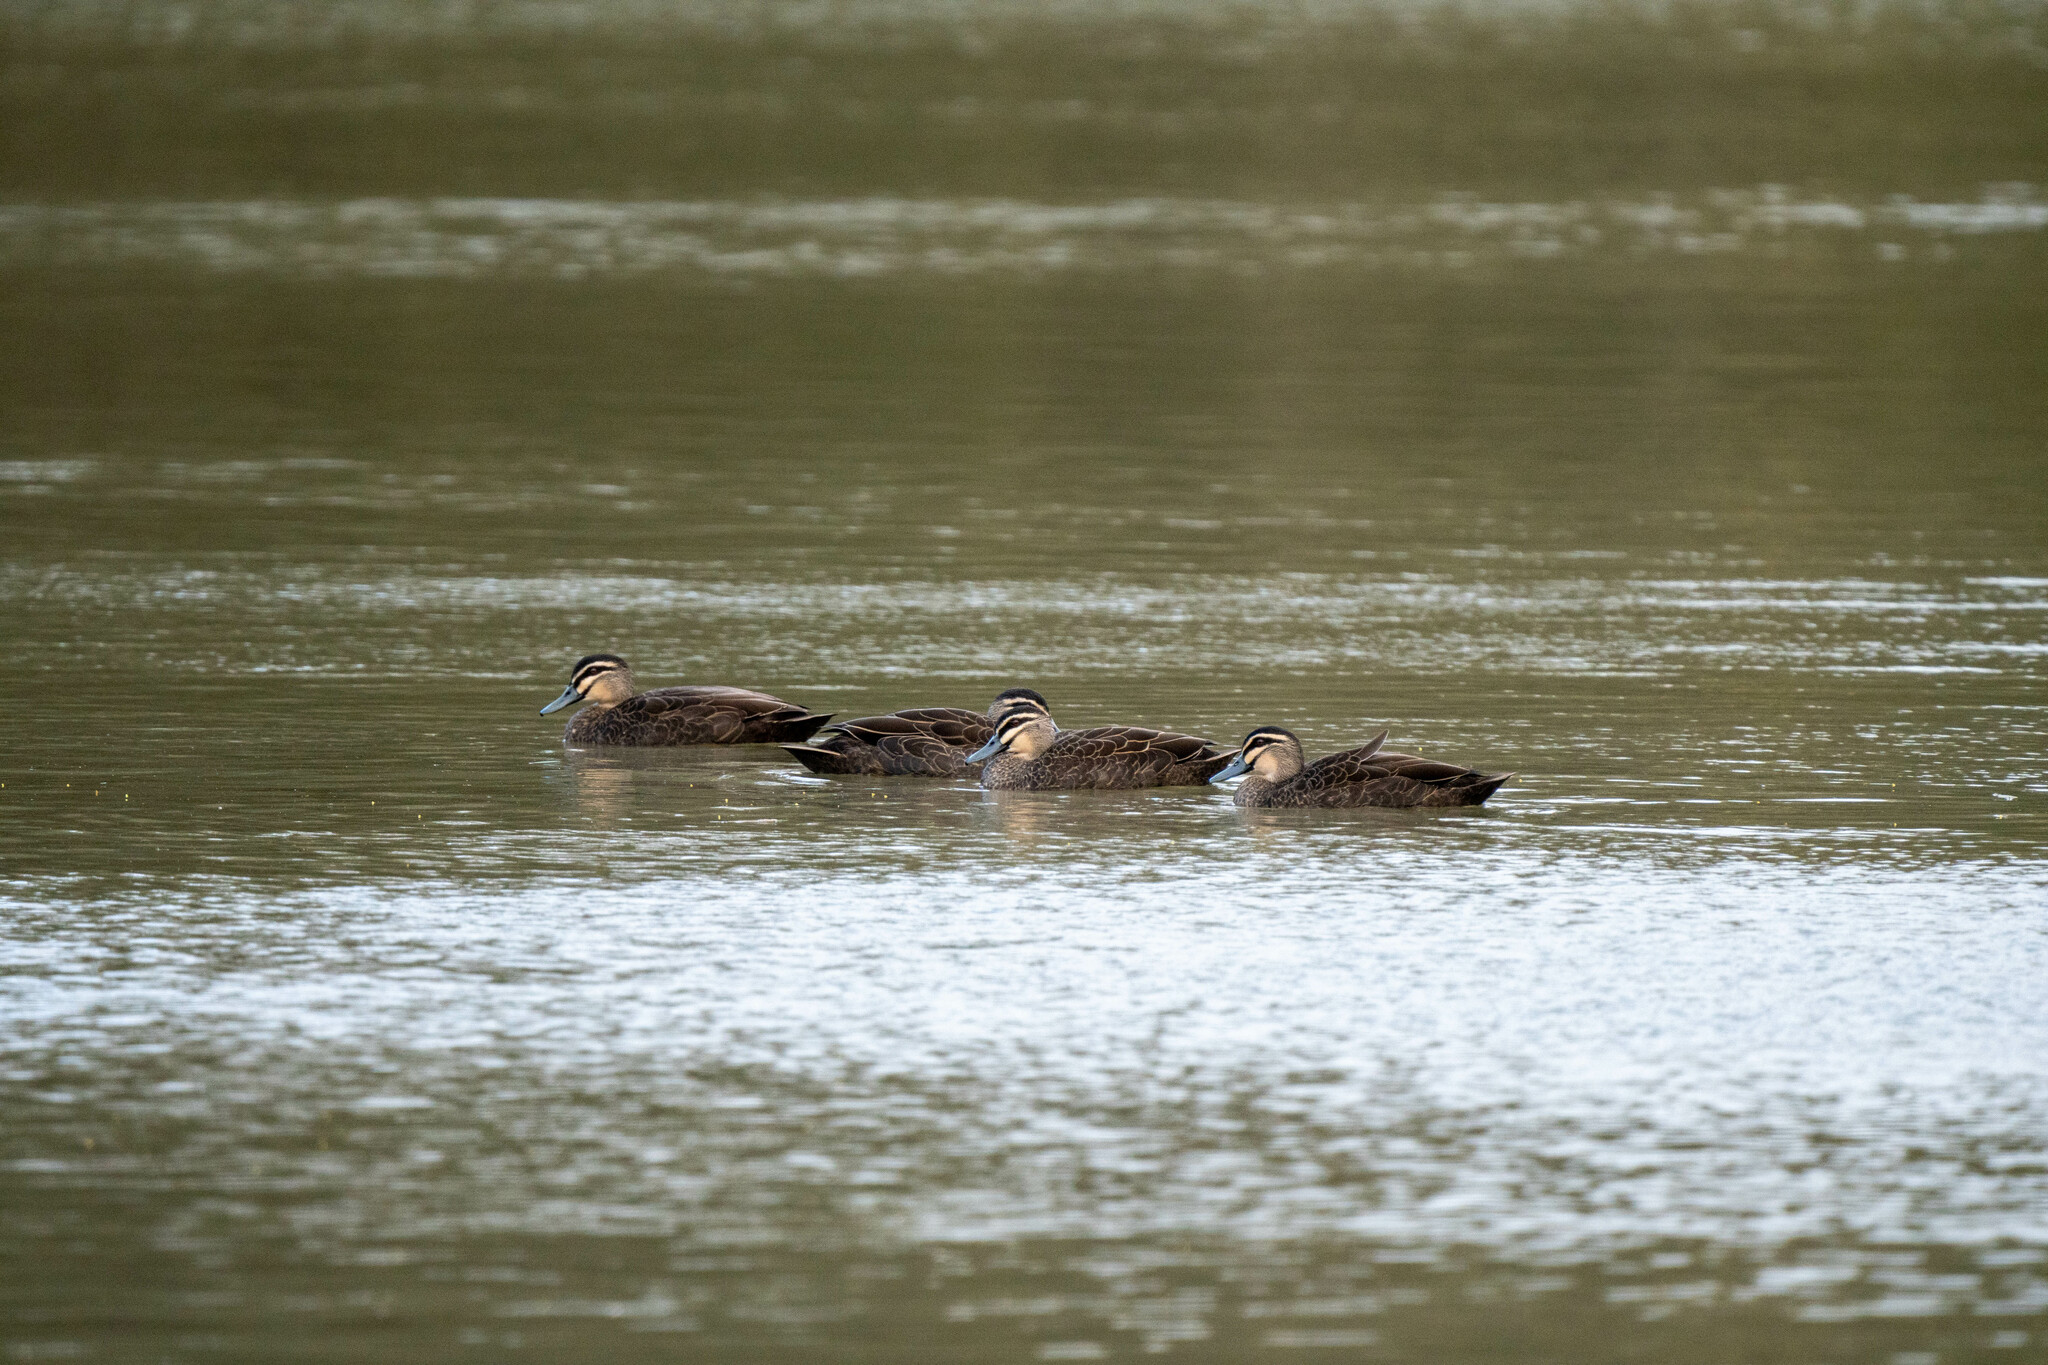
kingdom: Animalia
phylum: Chordata
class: Aves
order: Anseriformes
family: Anatidae
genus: Anas
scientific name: Anas superciliosa
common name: Pacific black duck
